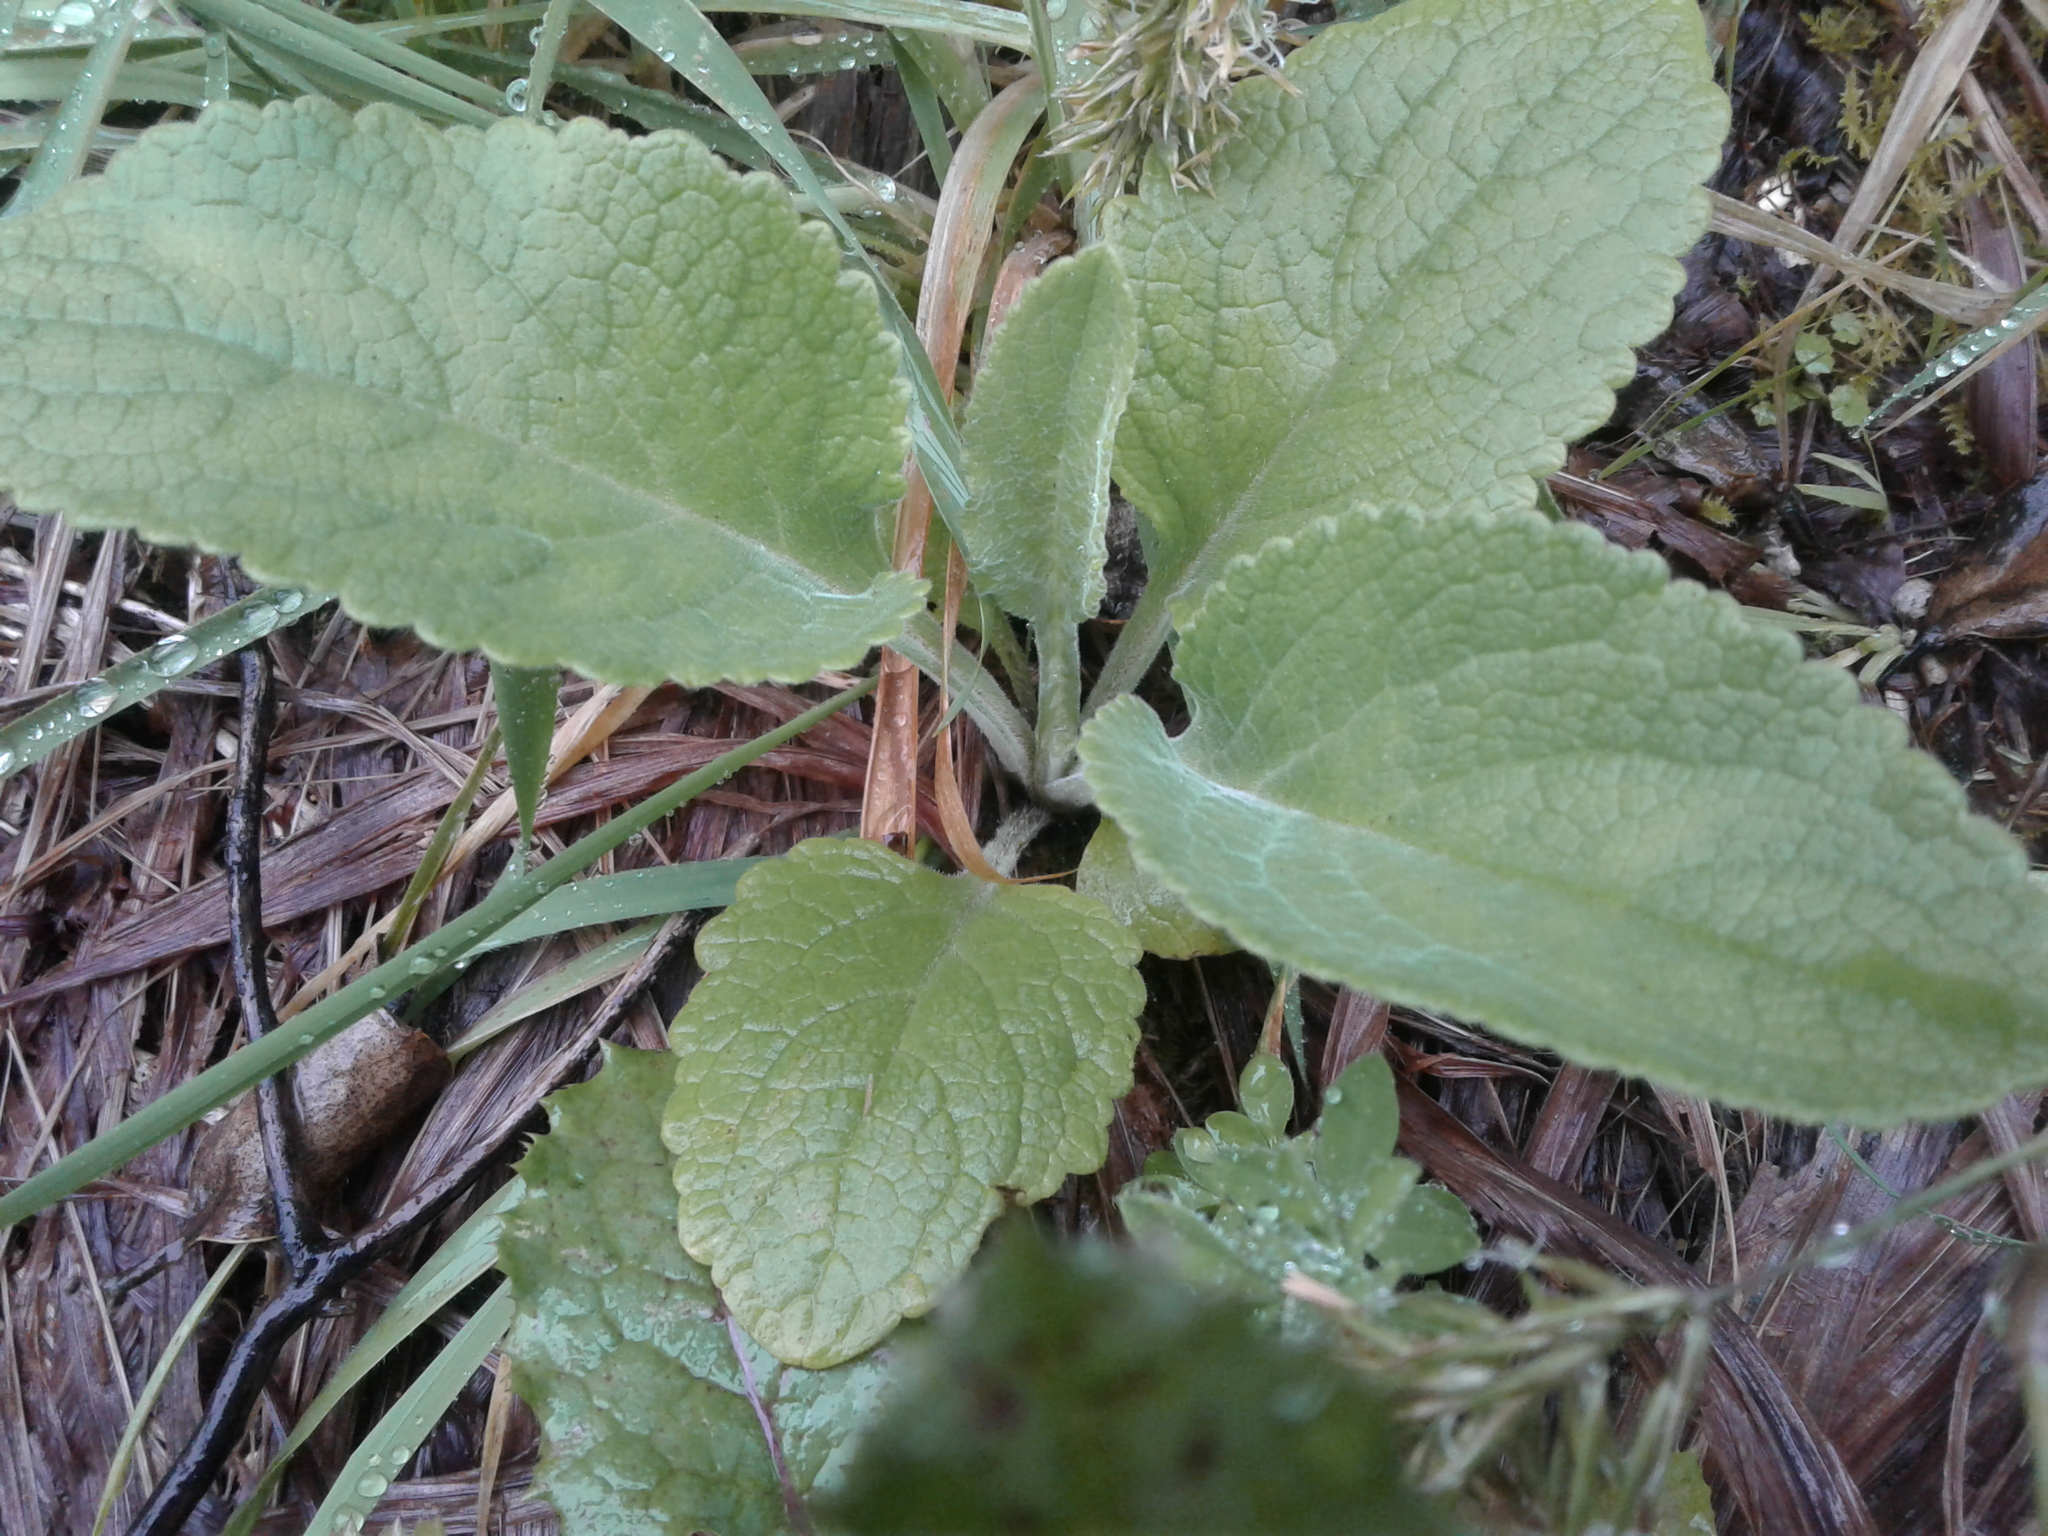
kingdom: Plantae
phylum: Tracheophyta
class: Magnoliopsida
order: Lamiales
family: Plantaginaceae
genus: Digitalis
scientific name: Digitalis purpurea
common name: Foxglove
